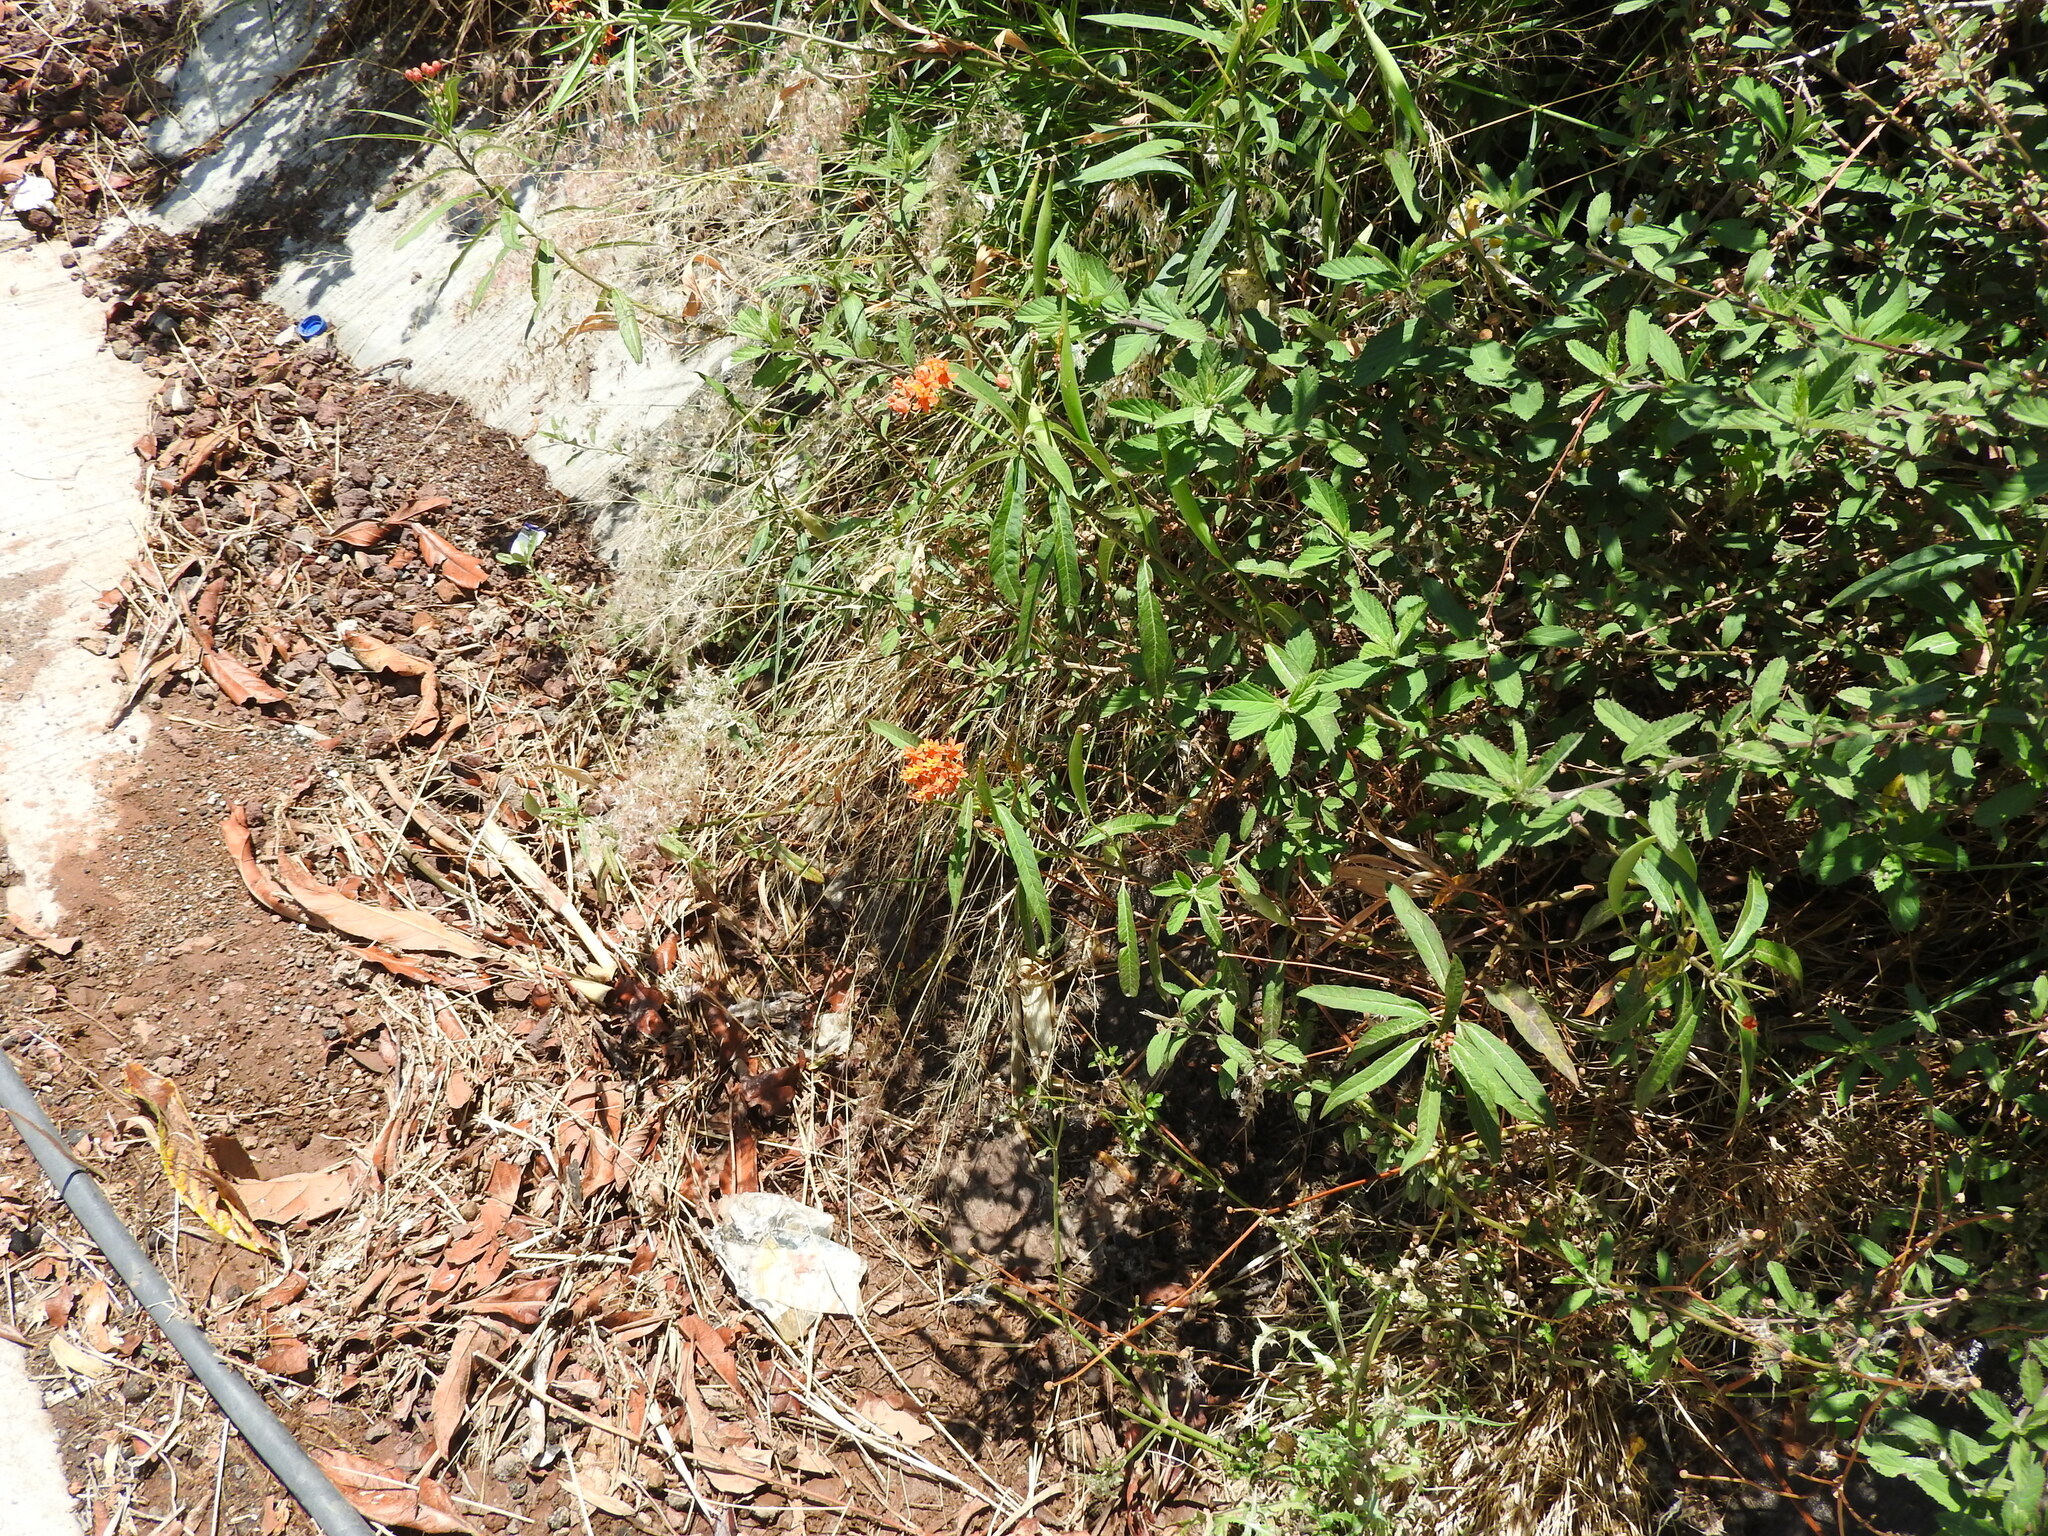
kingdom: Plantae
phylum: Tracheophyta
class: Magnoliopsida
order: Gentianales
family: Apocynaceae
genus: Asclepias
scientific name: Asclepias curassavica
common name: Bloodflower
